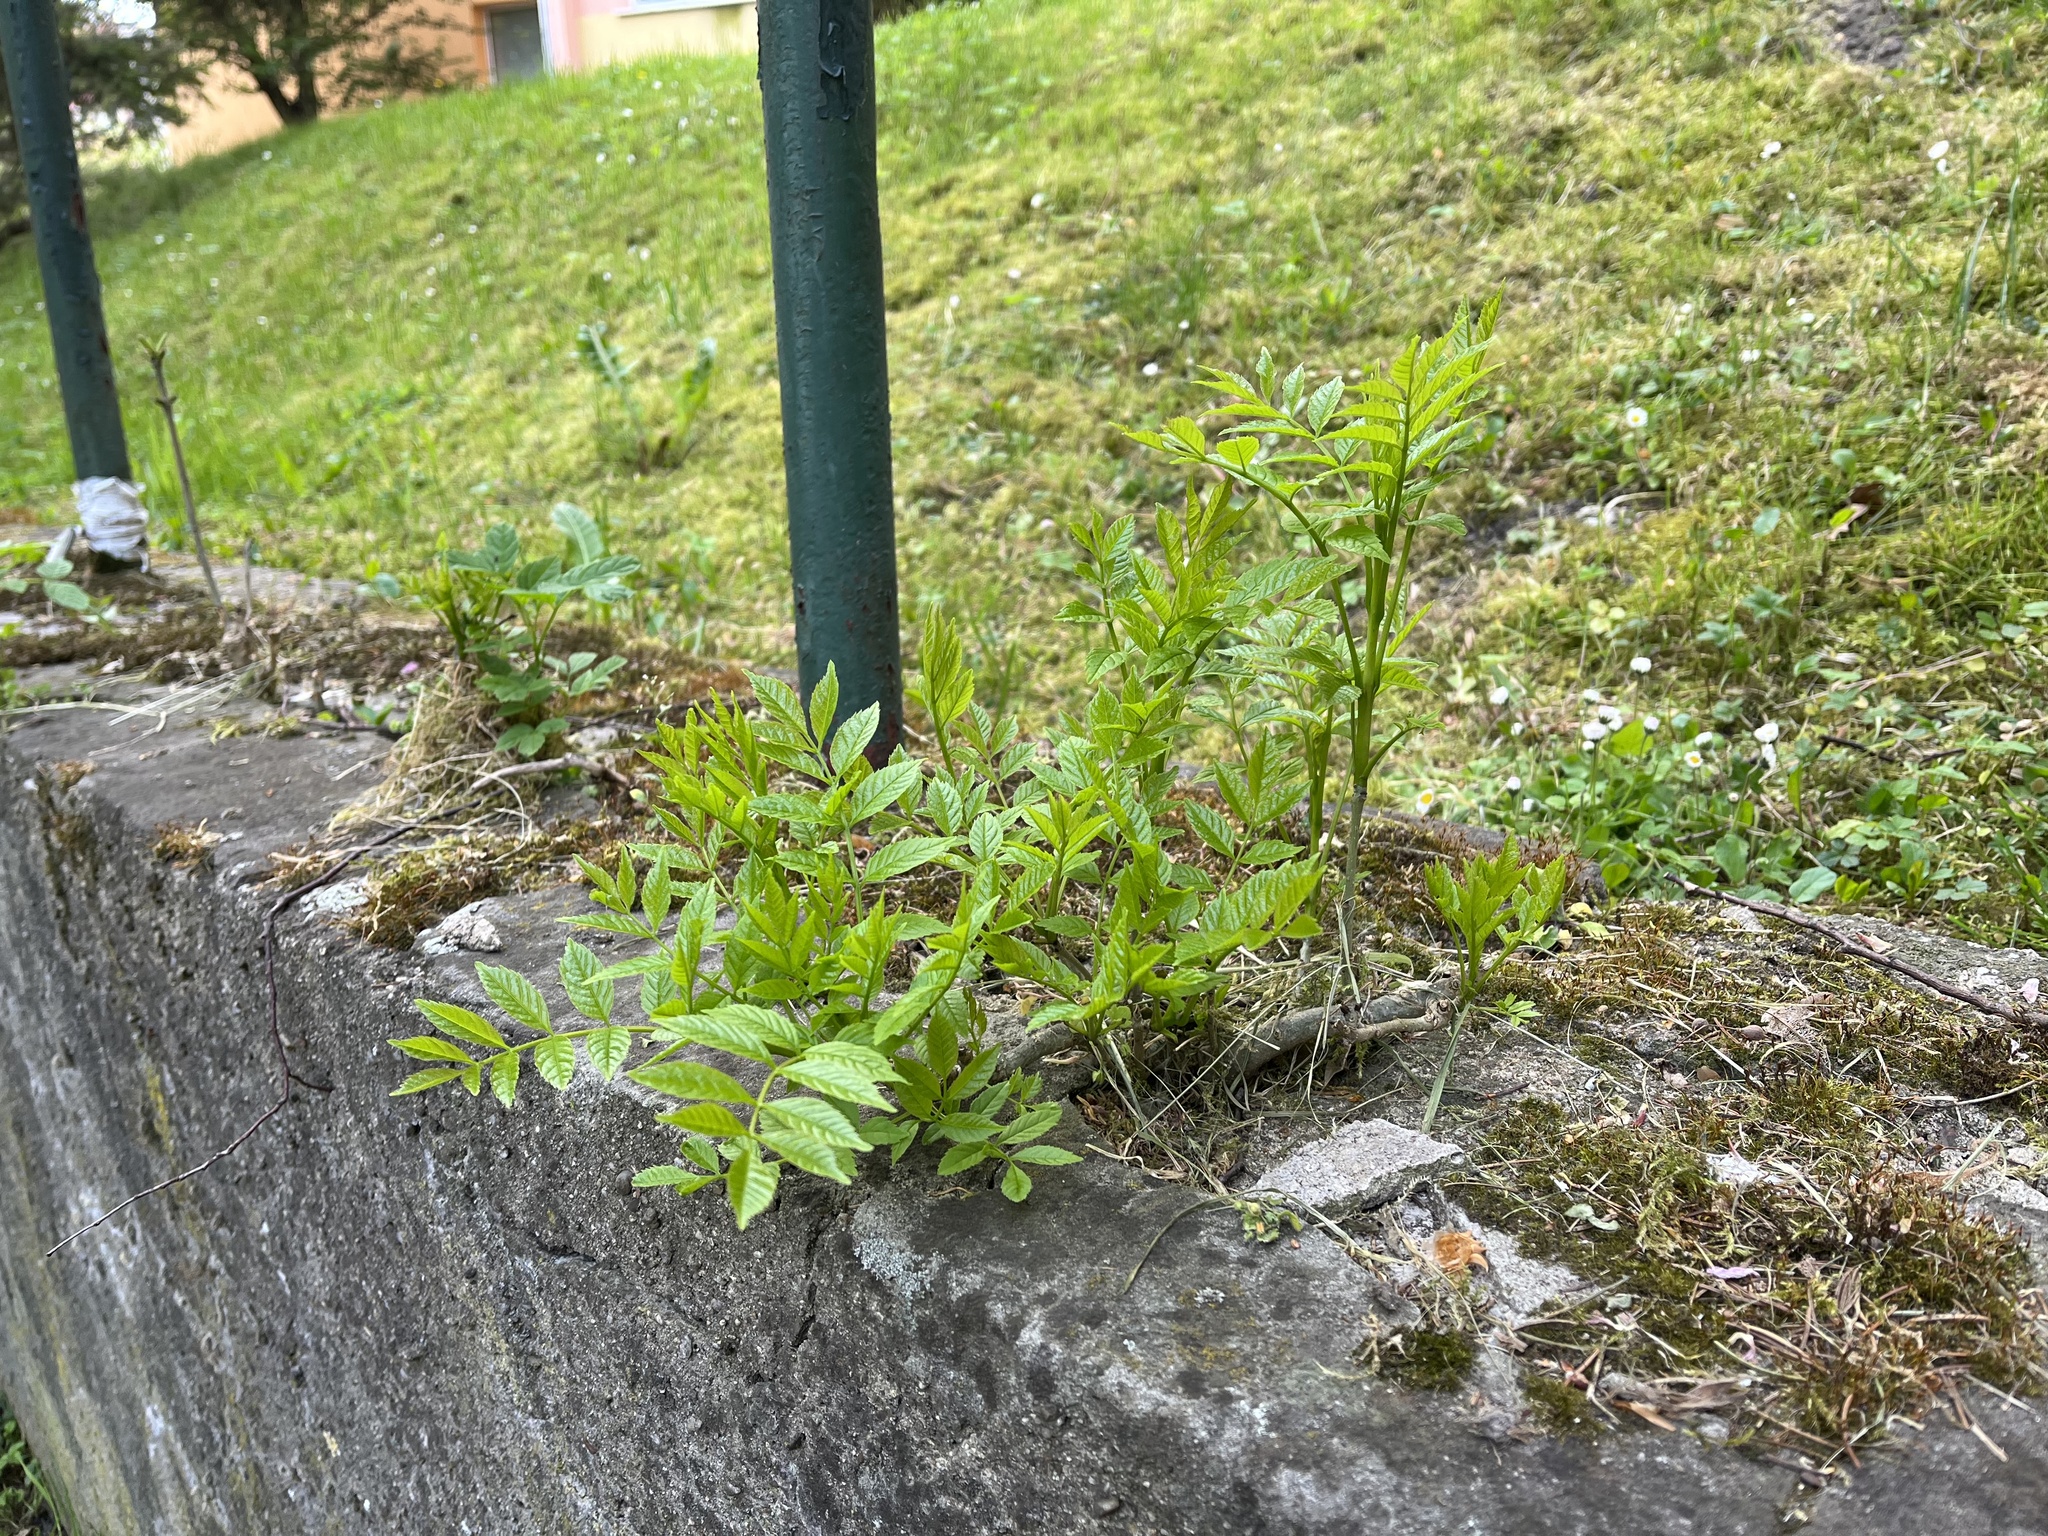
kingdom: Plantae
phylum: Tracheophyta
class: Magnoliopsida
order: Lamiales
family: Oleaceae
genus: Fraxinus
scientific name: Fraxinus excelsior
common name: European ash
